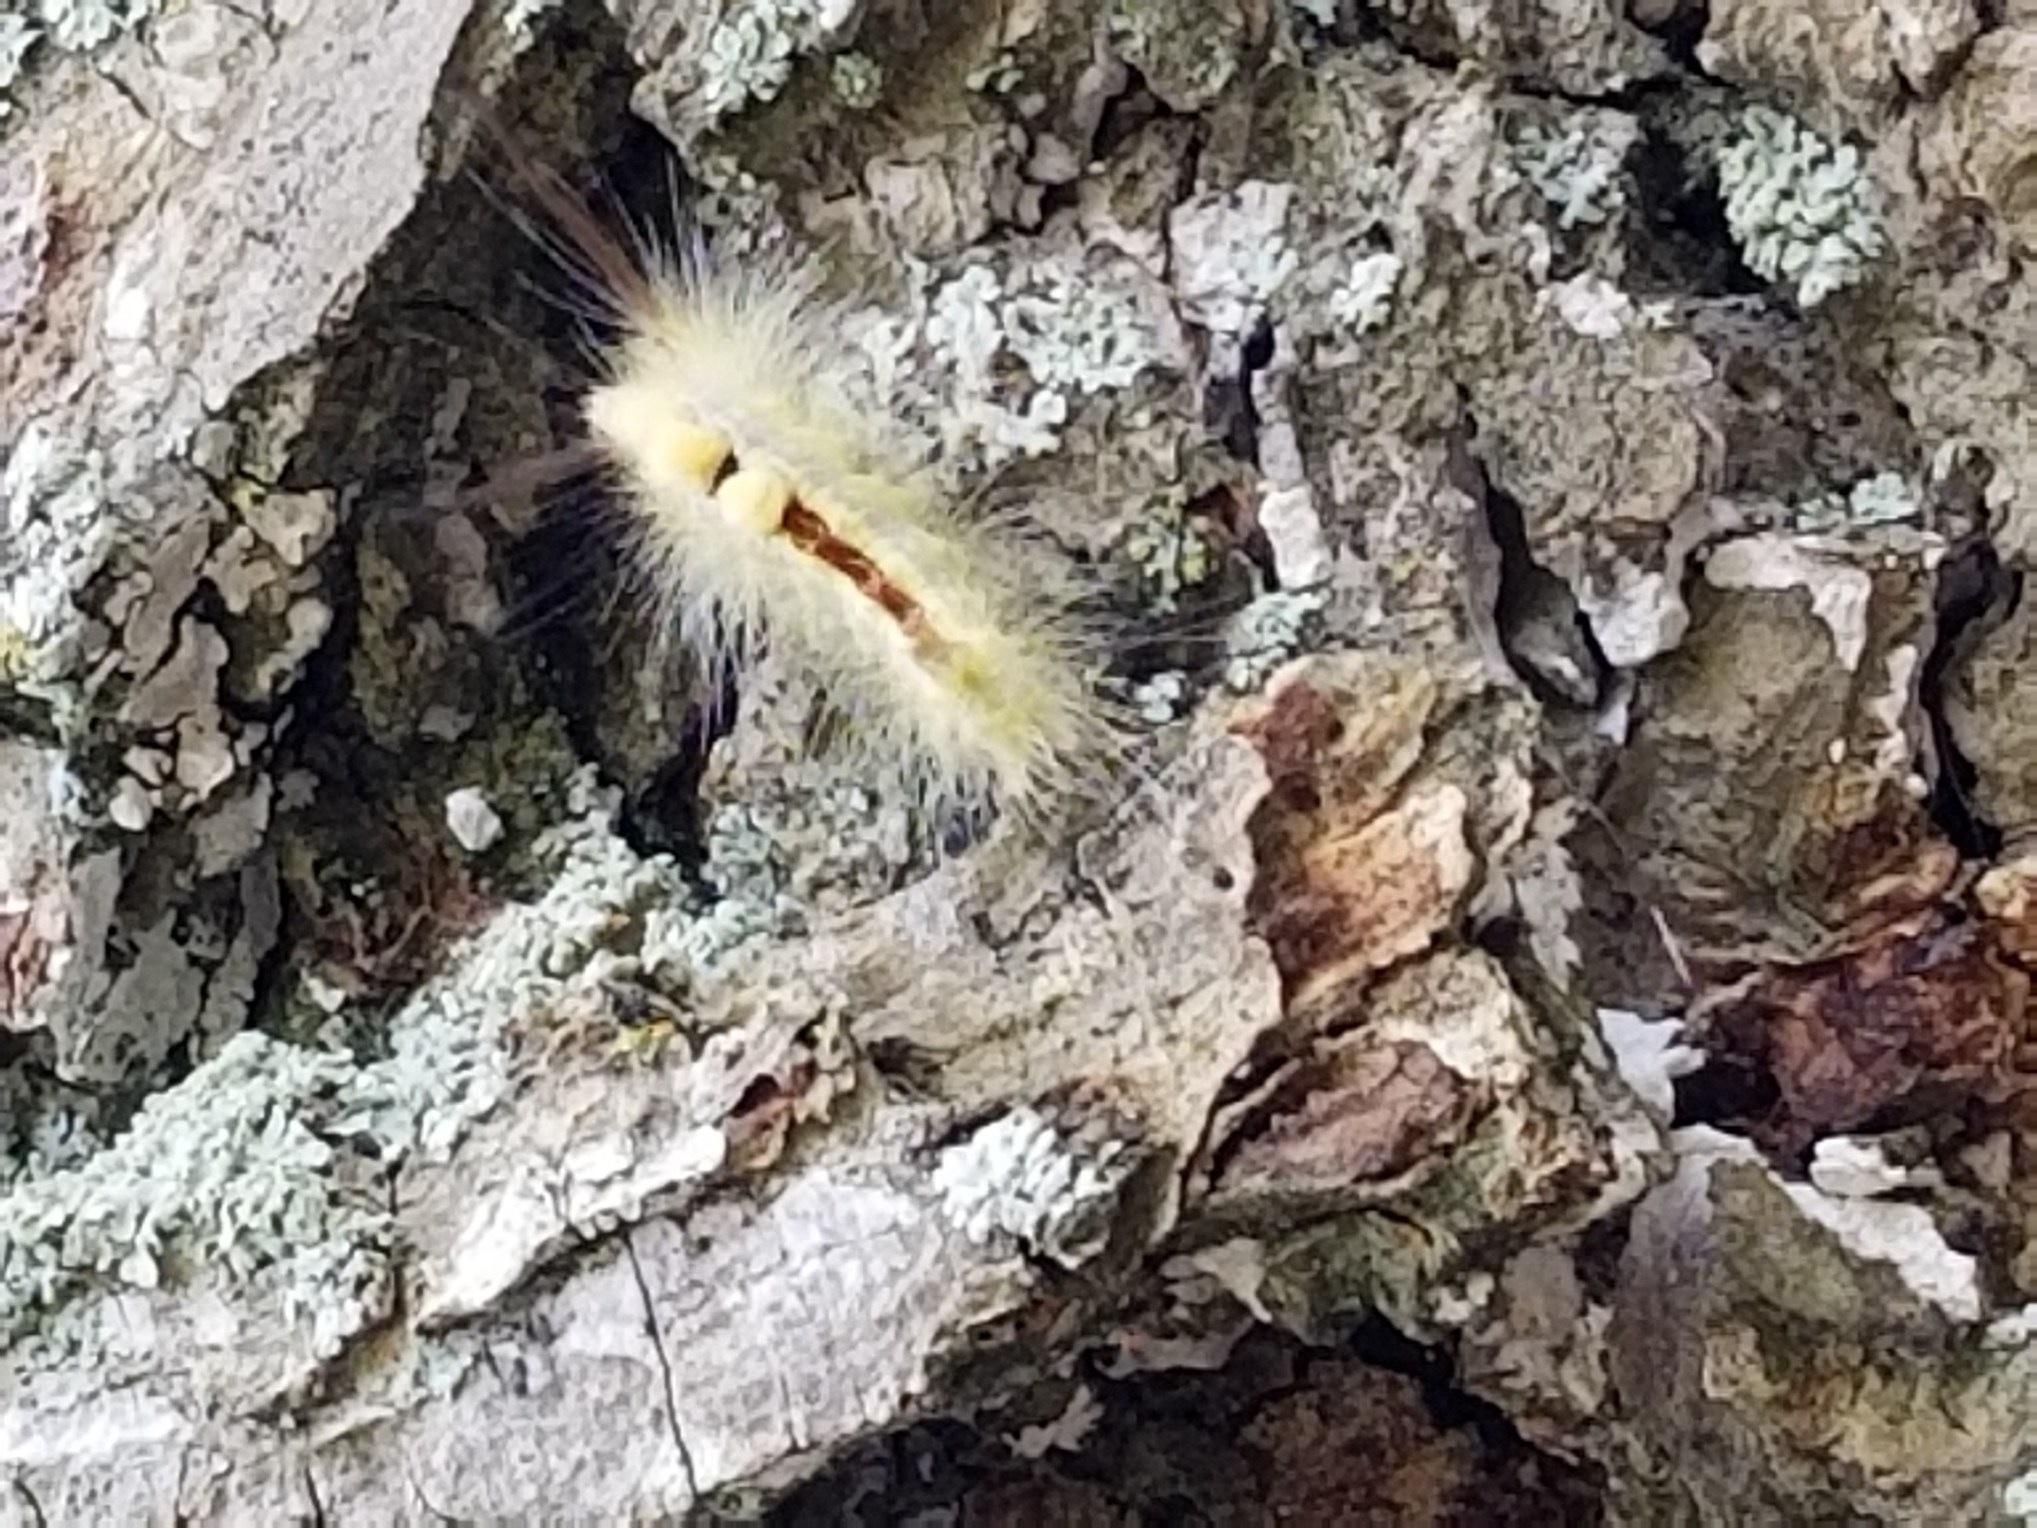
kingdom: Animalia
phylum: Arthropoda
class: Insecta
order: Lepidoptera
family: Erebidae
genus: Orgyia
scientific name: Orgyia leucostigma
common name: White-marked tussock moth
